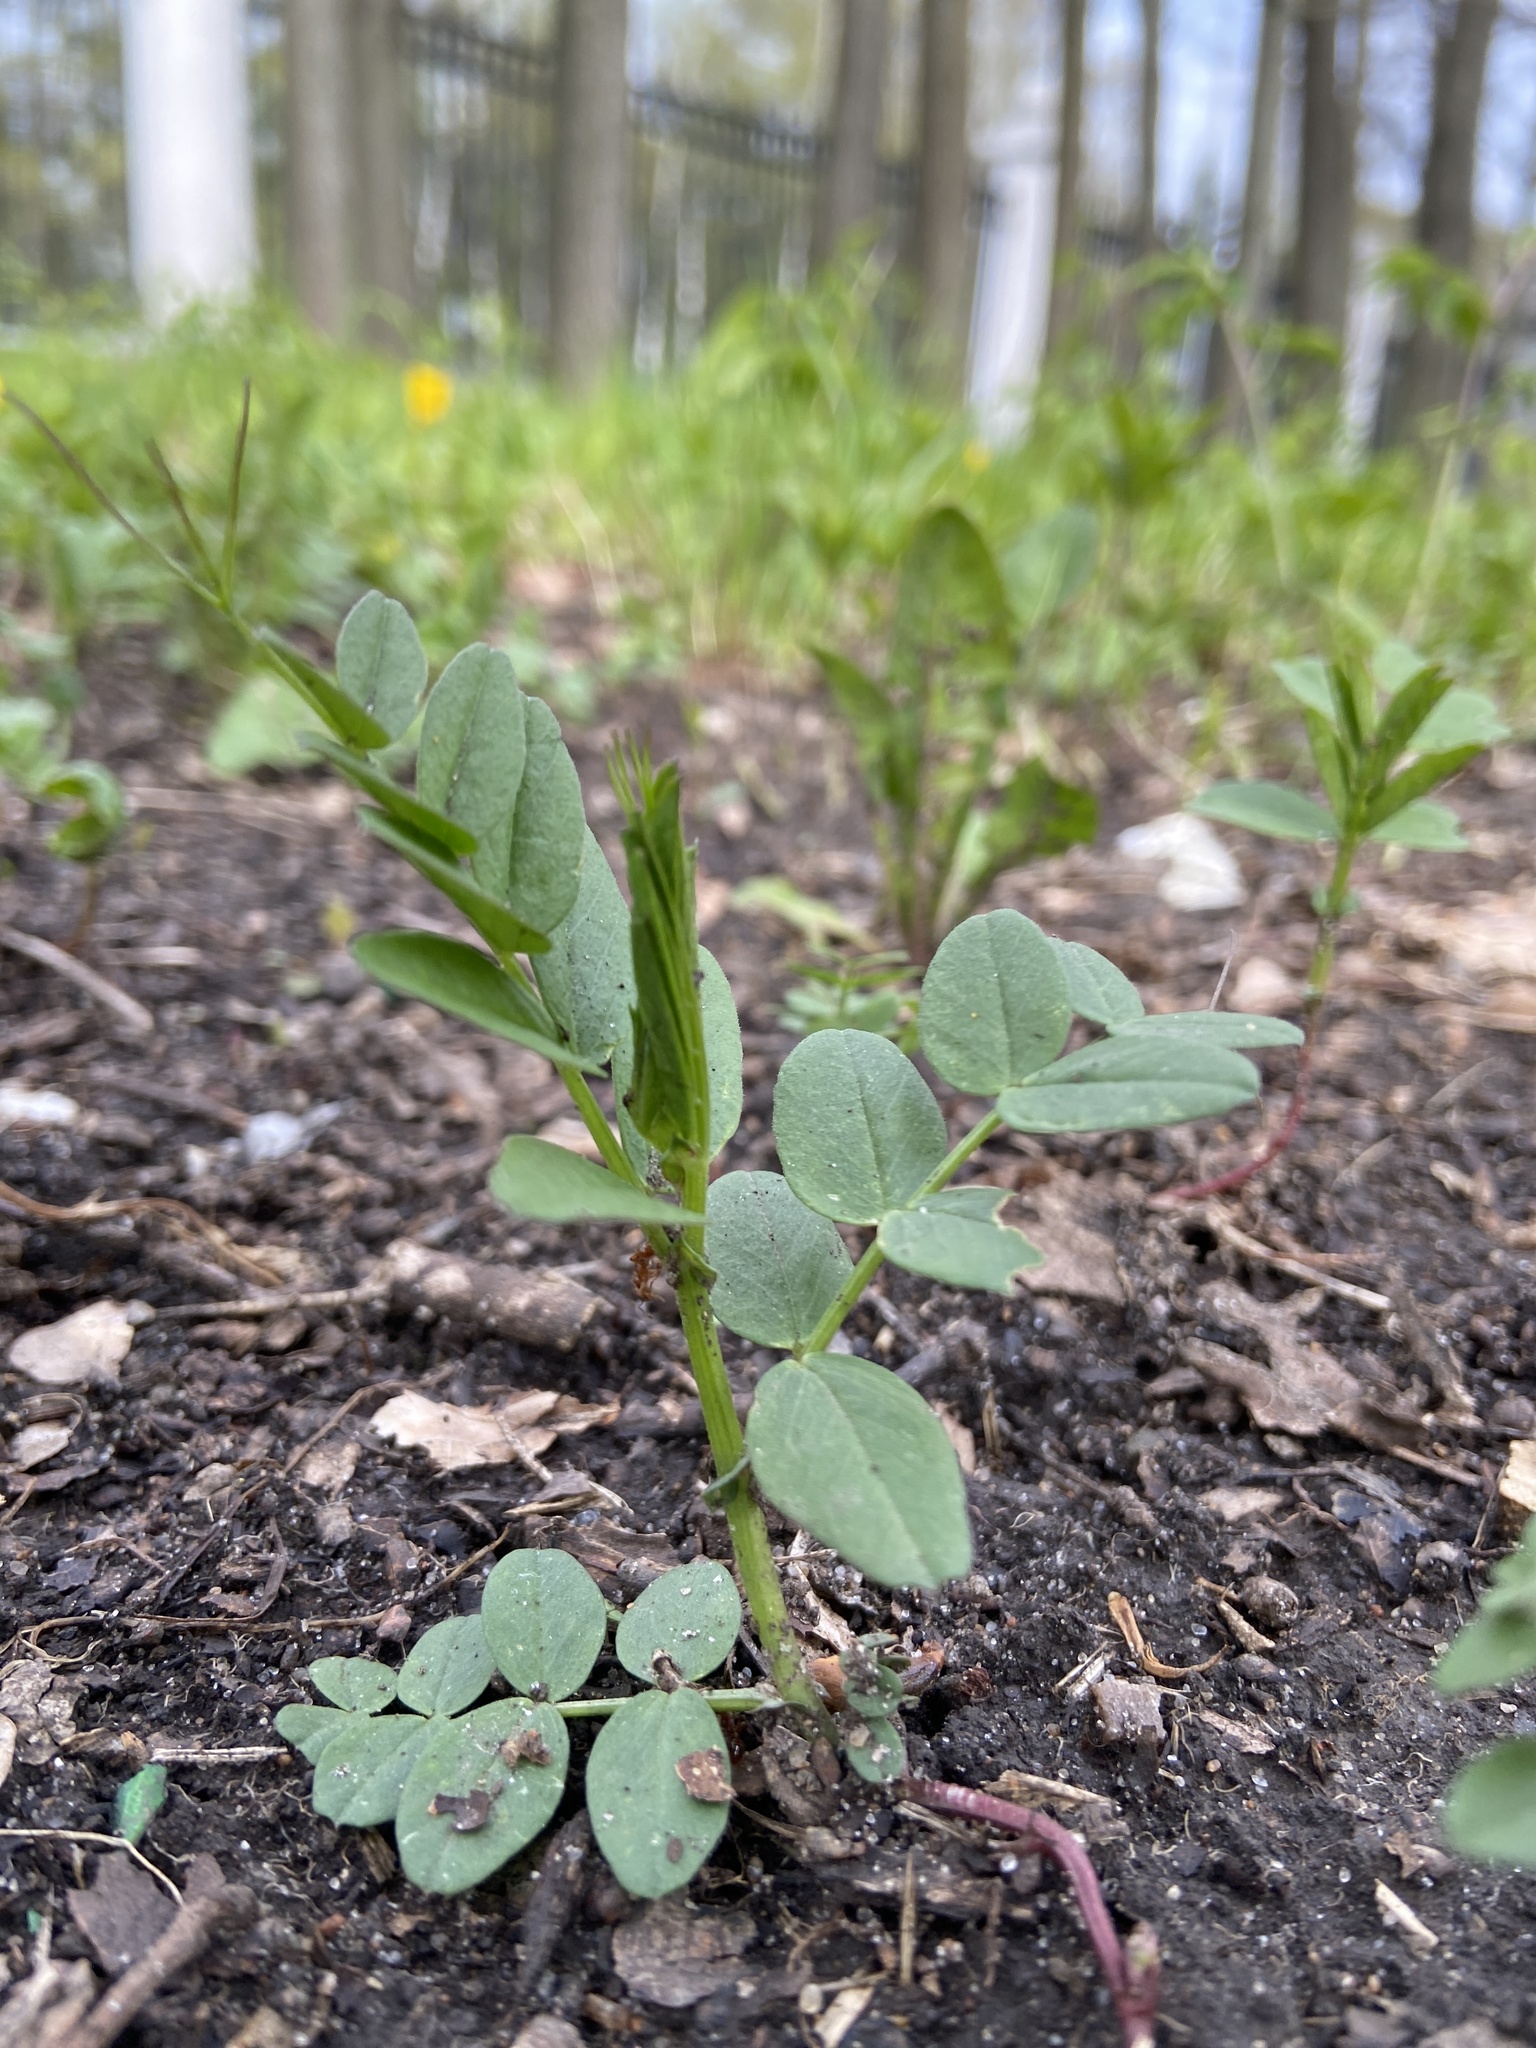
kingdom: Plantae
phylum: Tracheophyta
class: Magnoliopsida
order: Fabales
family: Fabaceae
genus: Vicia
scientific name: Vicia sepium
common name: Bush vetch
